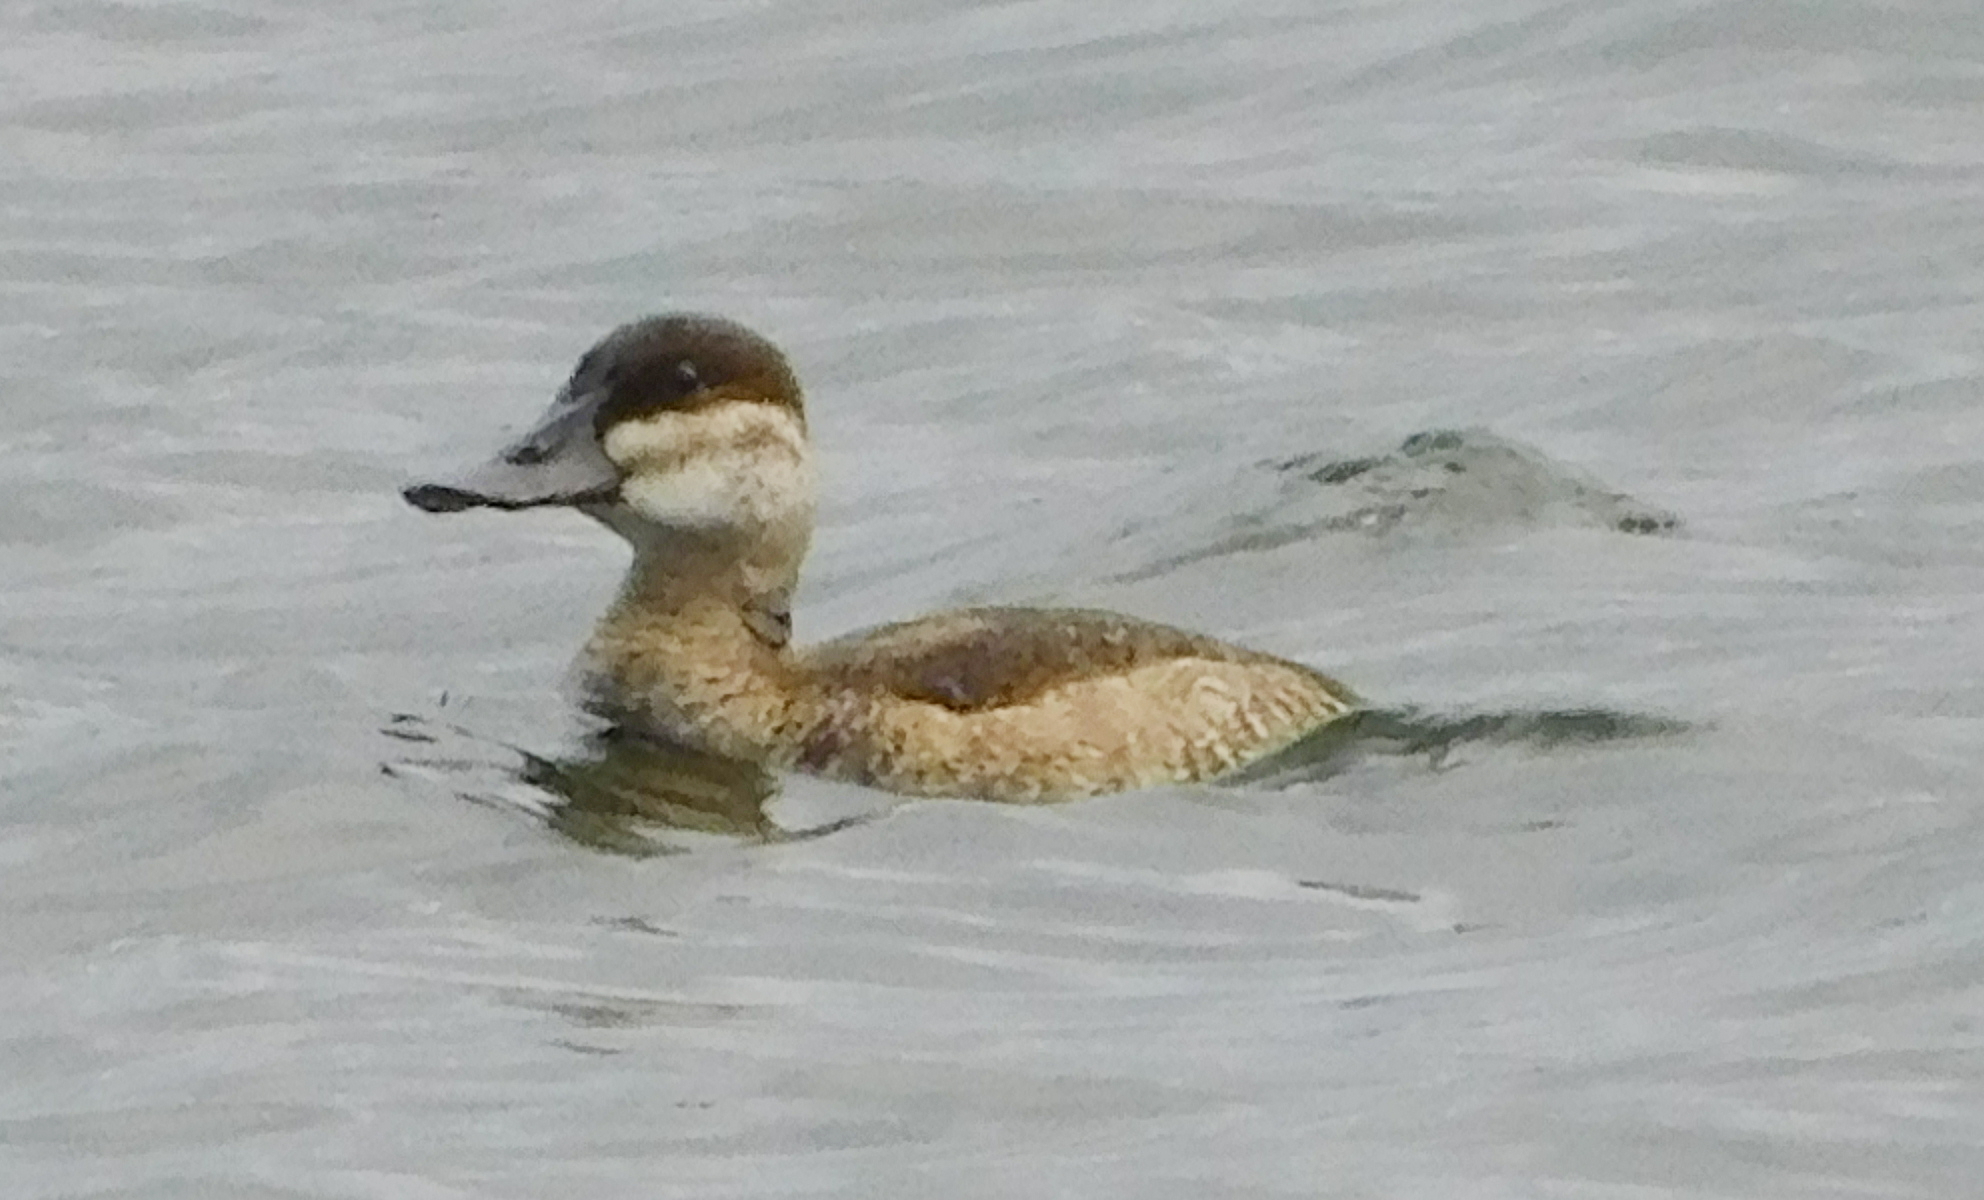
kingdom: Animalia
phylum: Chordata
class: Aves
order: Anseriformes
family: Anatidae
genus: Oxyura
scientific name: Oxyura jamaicensis
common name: Ruddy duck
